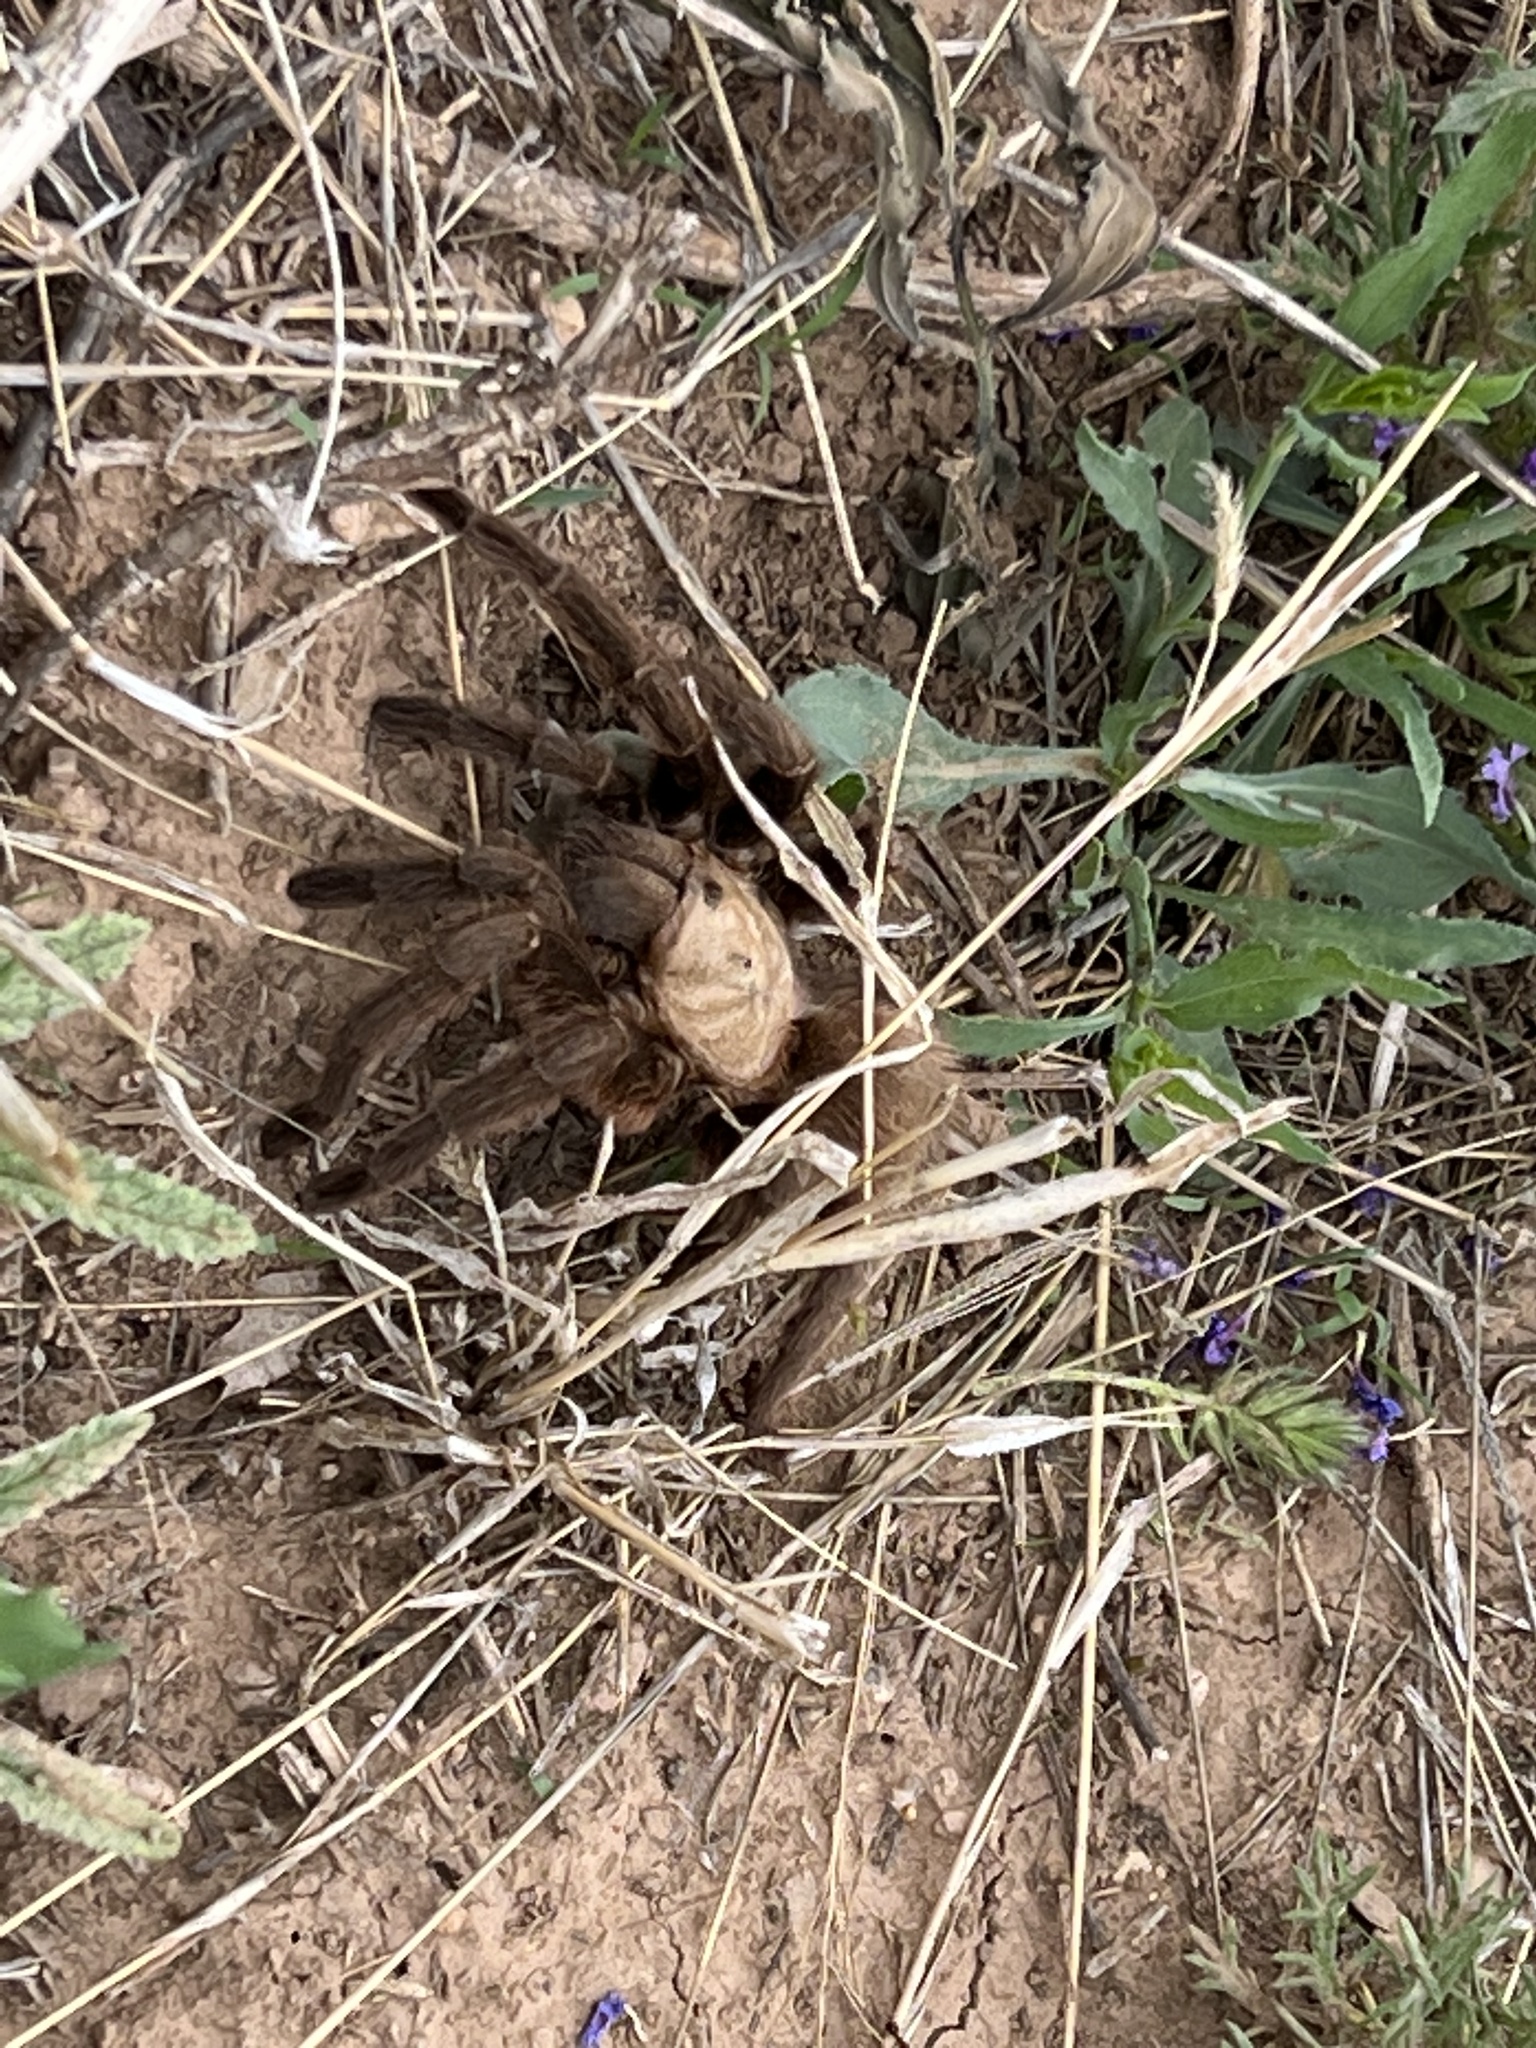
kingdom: Animalia
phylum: Arthropoda
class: Arachnida
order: Araneae
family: Theraphosidae
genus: Aphonopelma
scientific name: Aphonopelma hentzi
